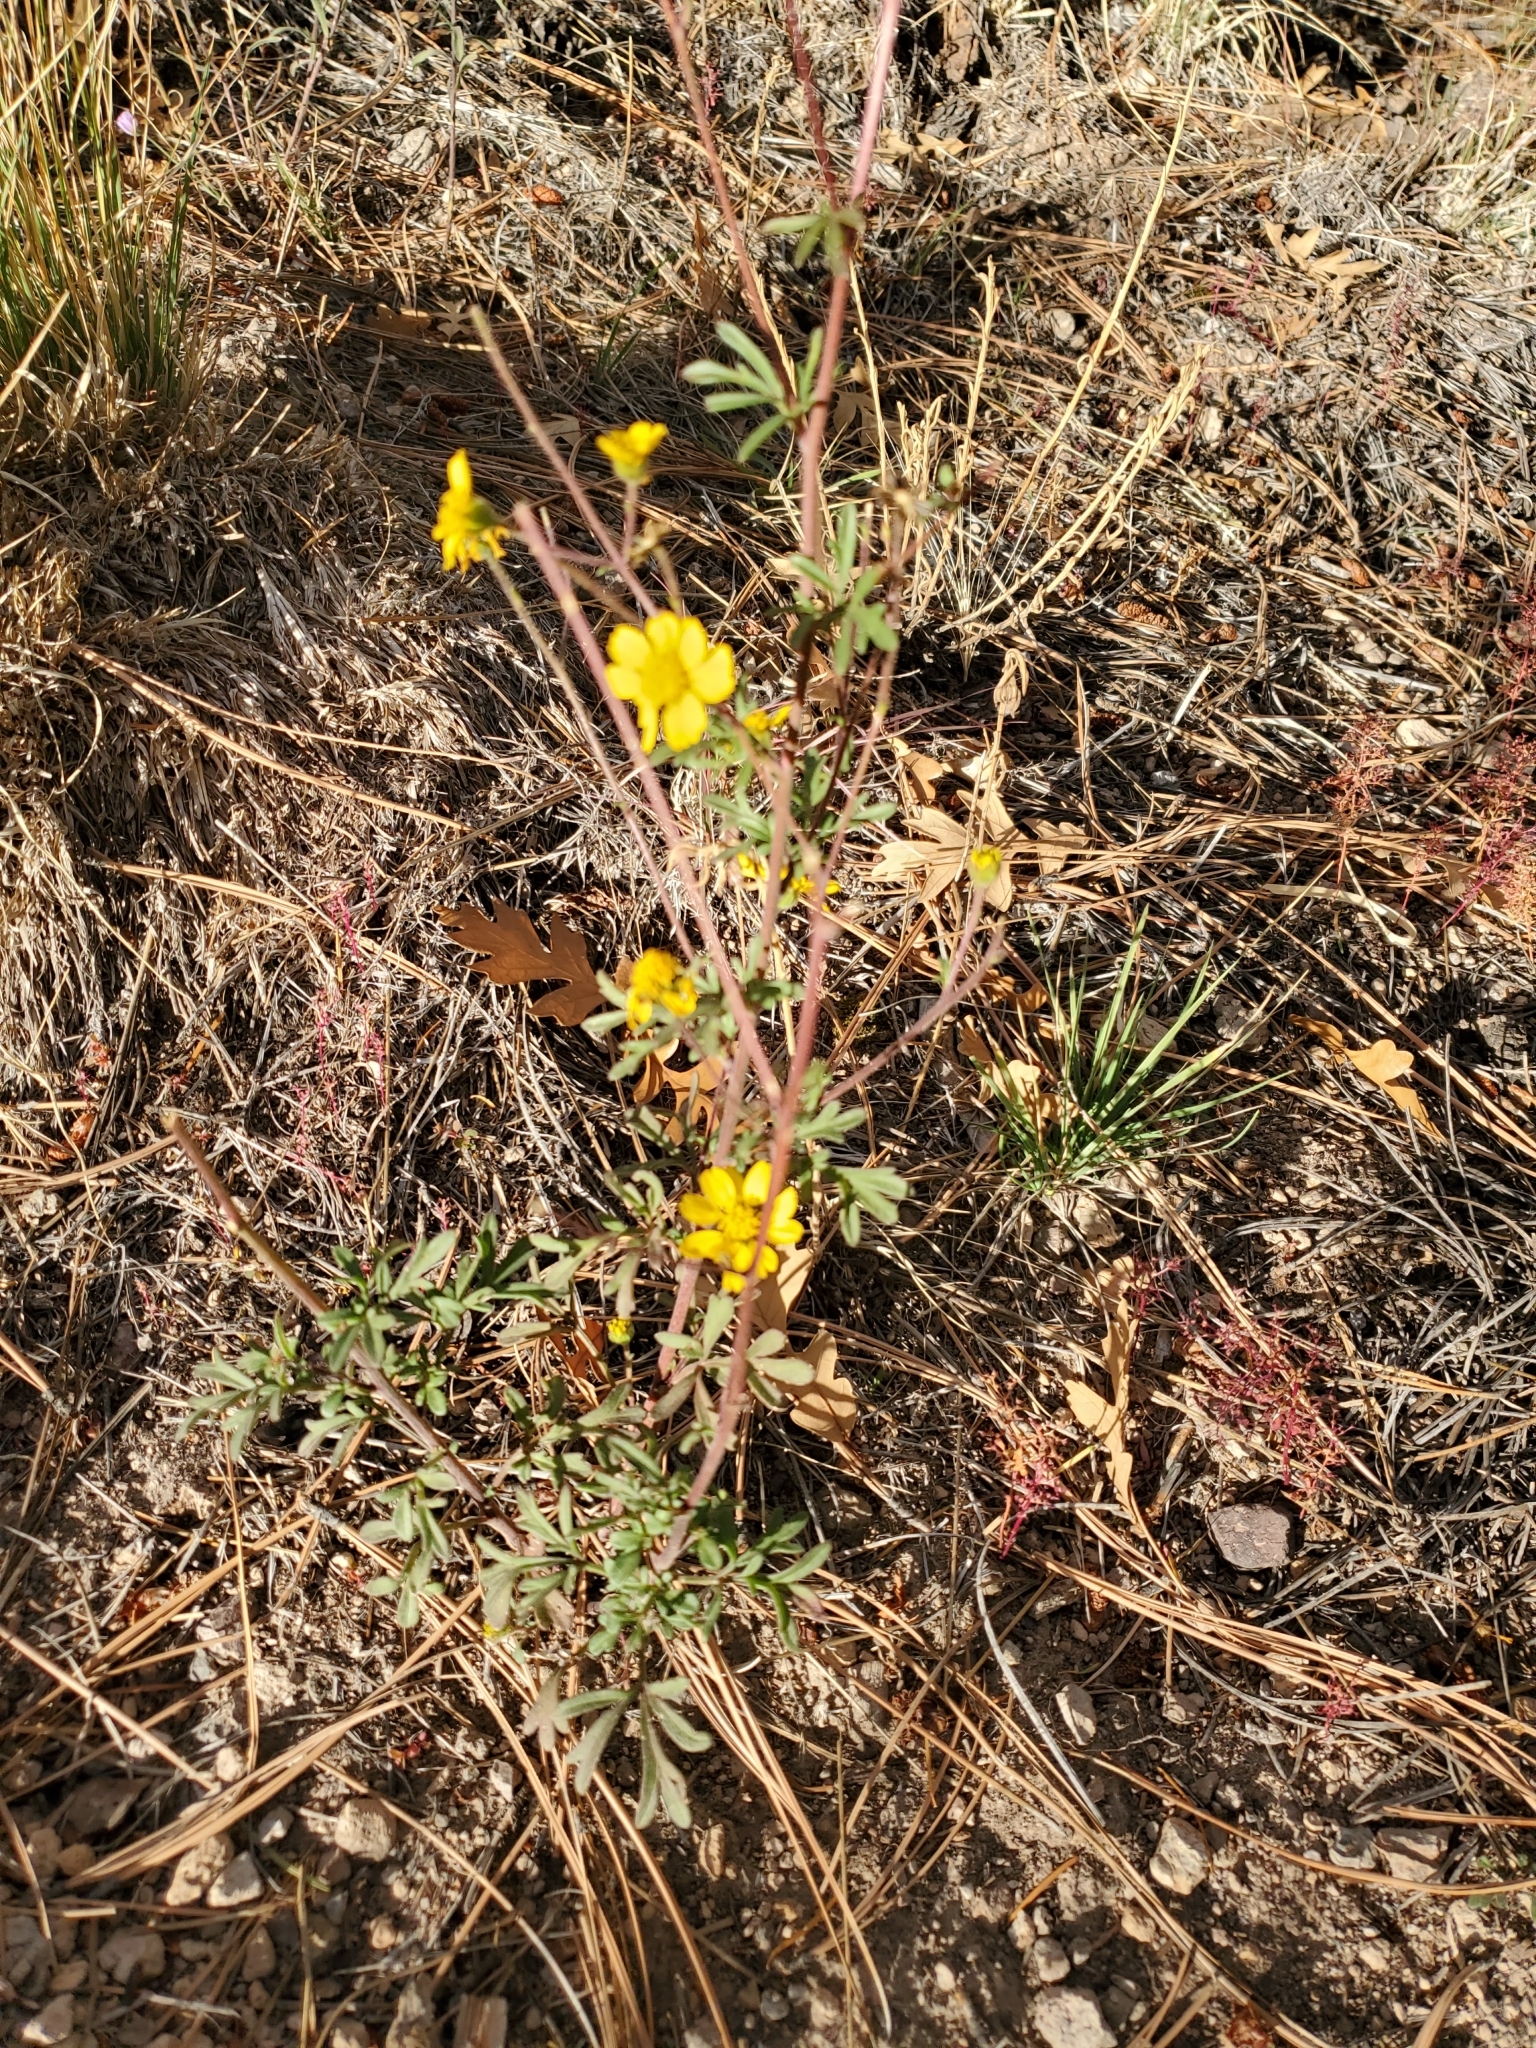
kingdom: Plantae
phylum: Tracheophyta
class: Magnoliopsida
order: Asterales
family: Asteraceae
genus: Hymenothrix
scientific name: Hymenothrix dissecta
